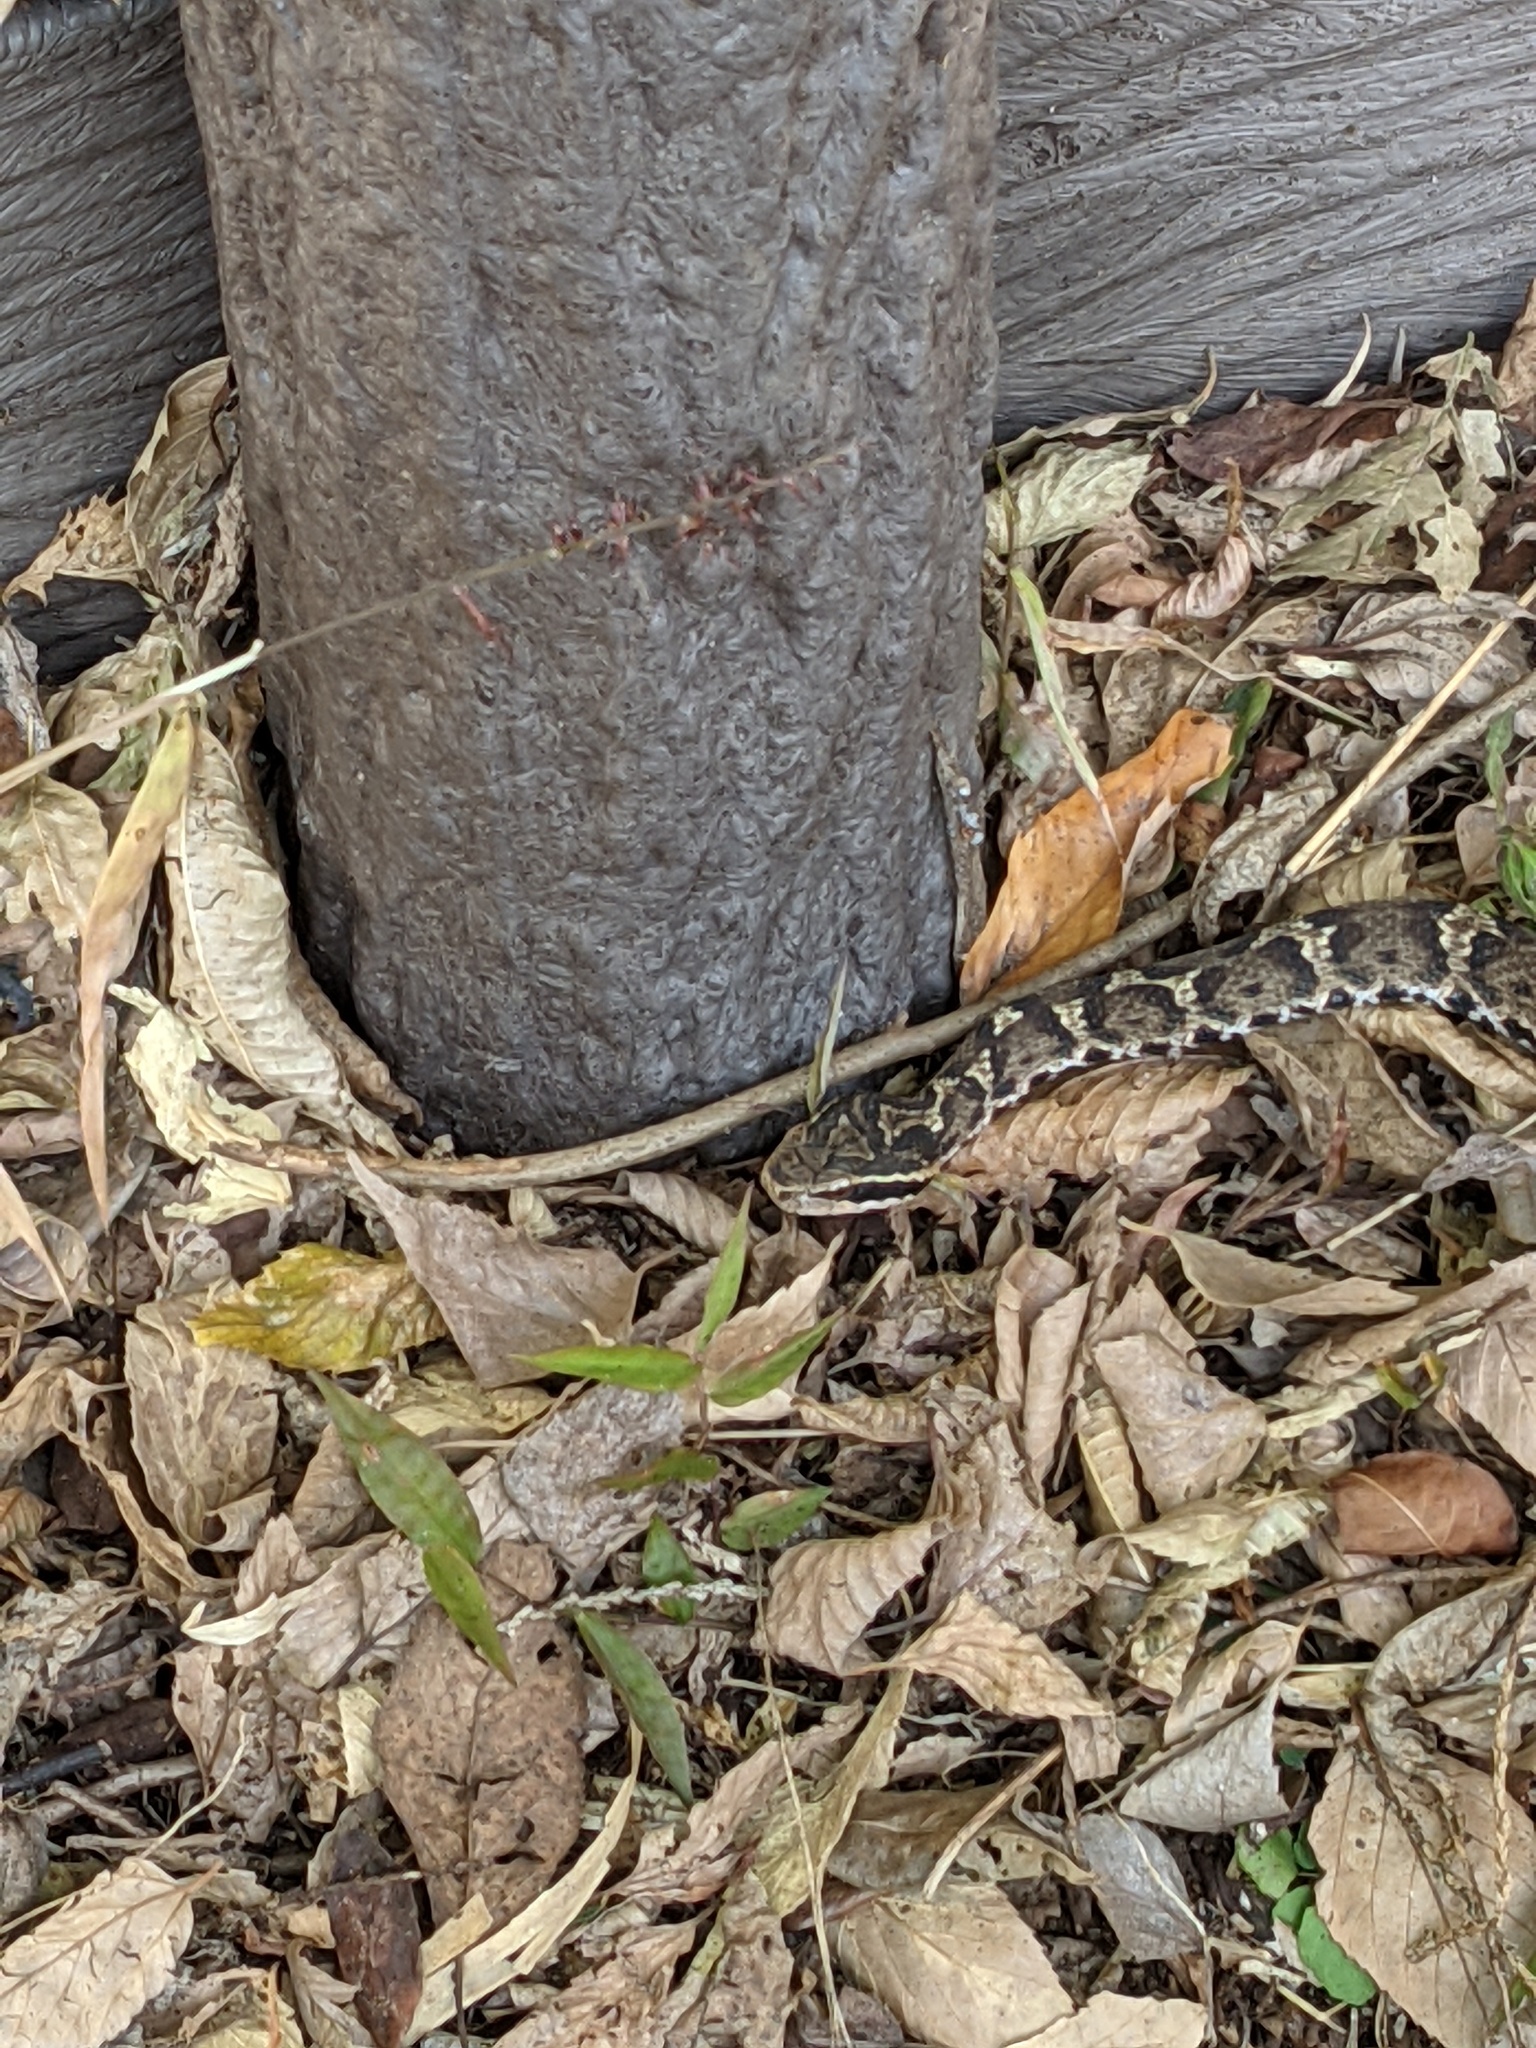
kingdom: Animalia
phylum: Chordata
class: Squamata
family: Viperidae
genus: Gloydius
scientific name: Gloydius blomhoffii
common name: Mamushi
